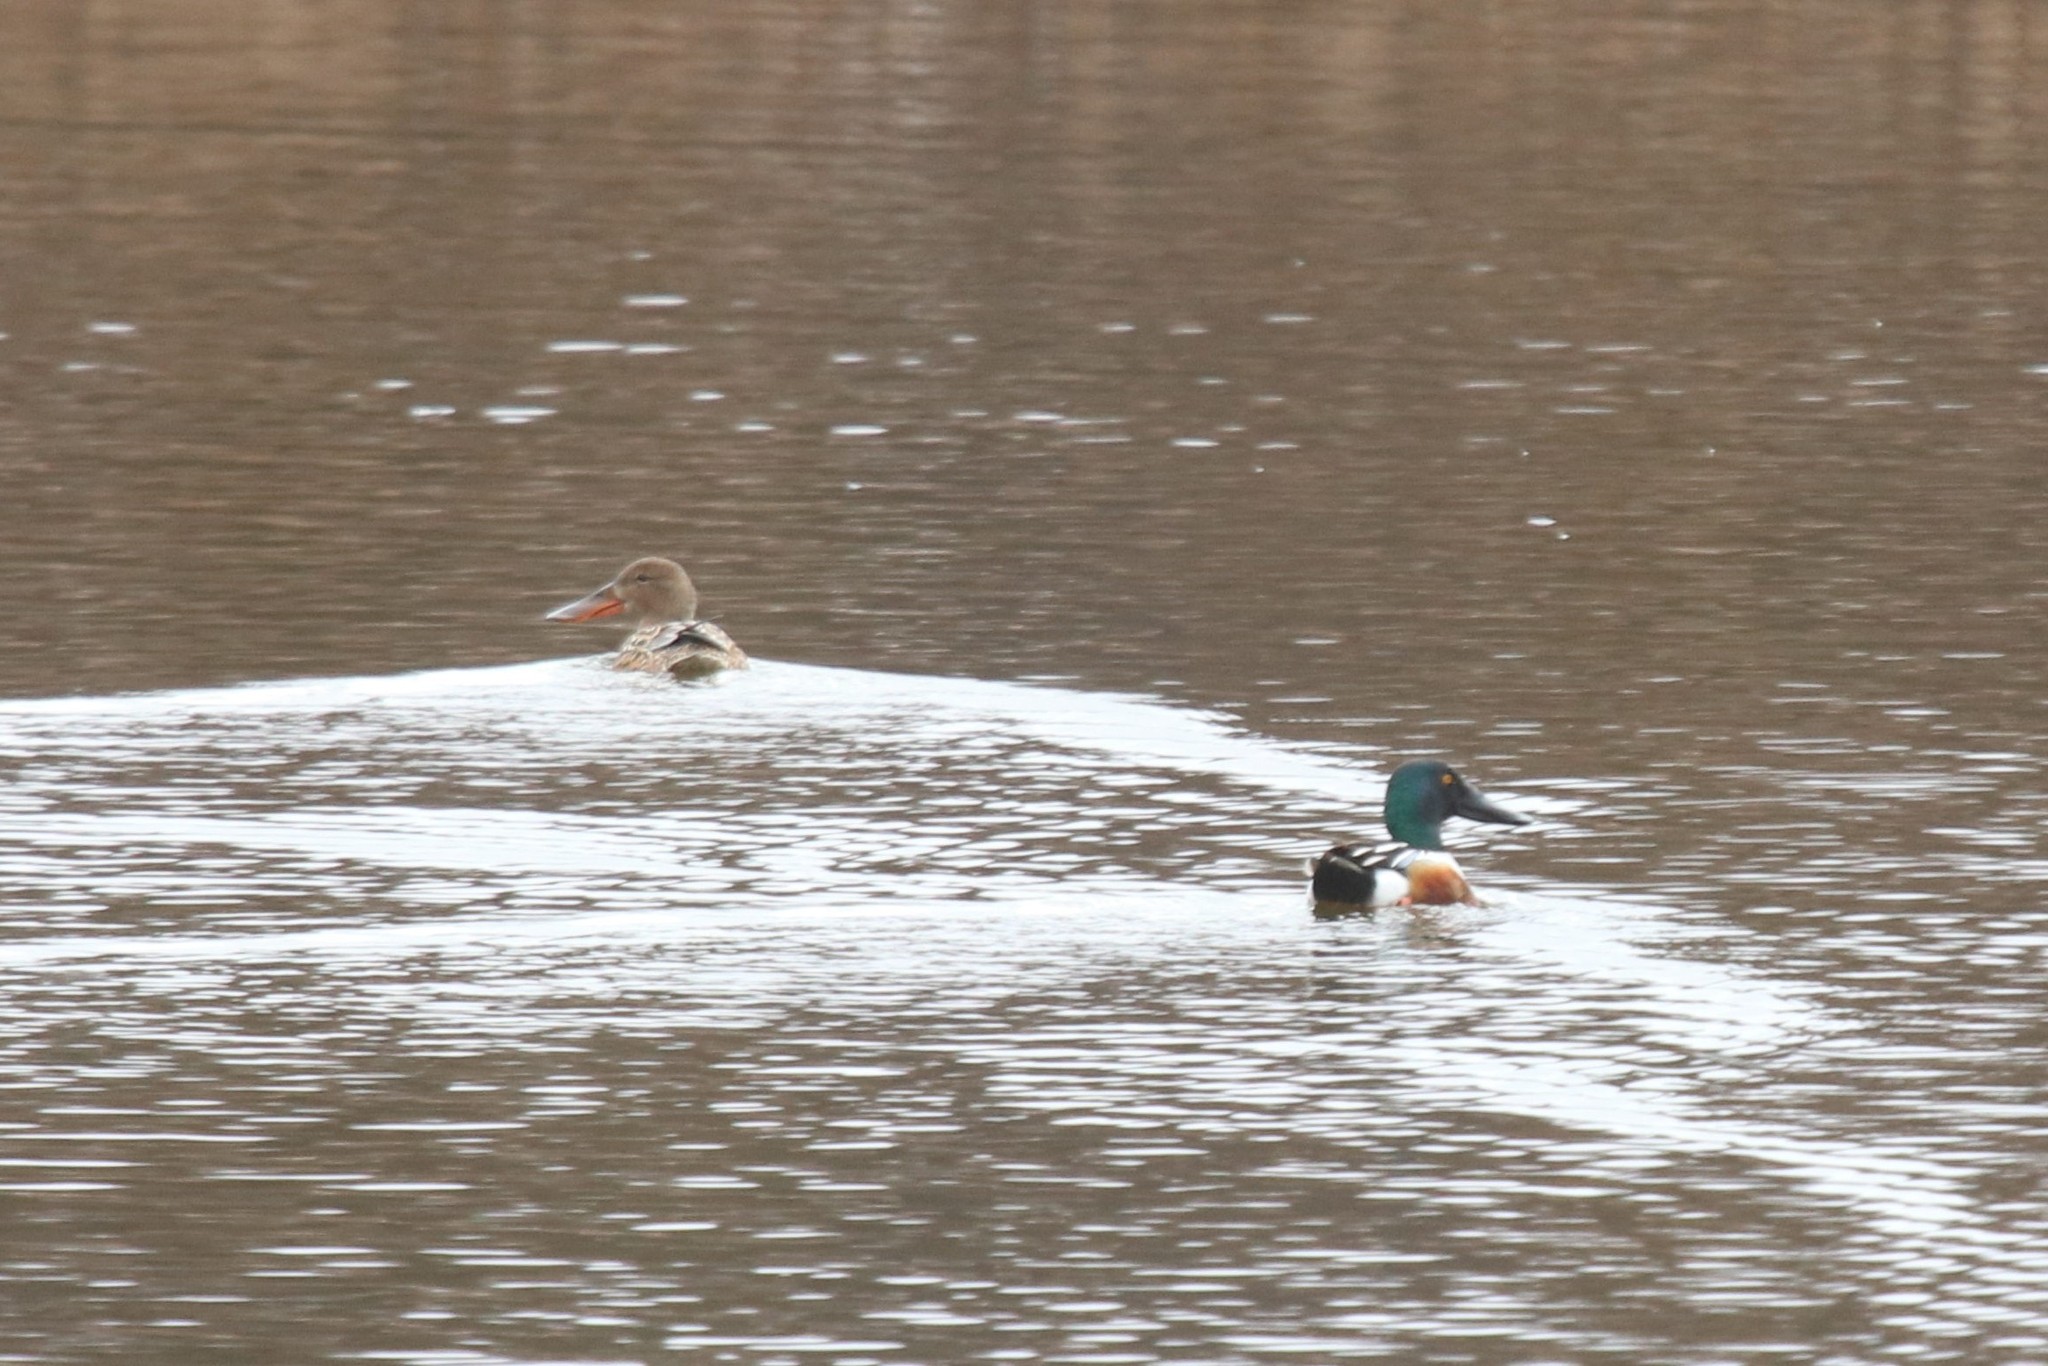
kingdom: Animalia
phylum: Chordata
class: Aves
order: Anseriformes
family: Anatidae
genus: Spatula
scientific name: Spatula clypeata
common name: Northern shoveler
